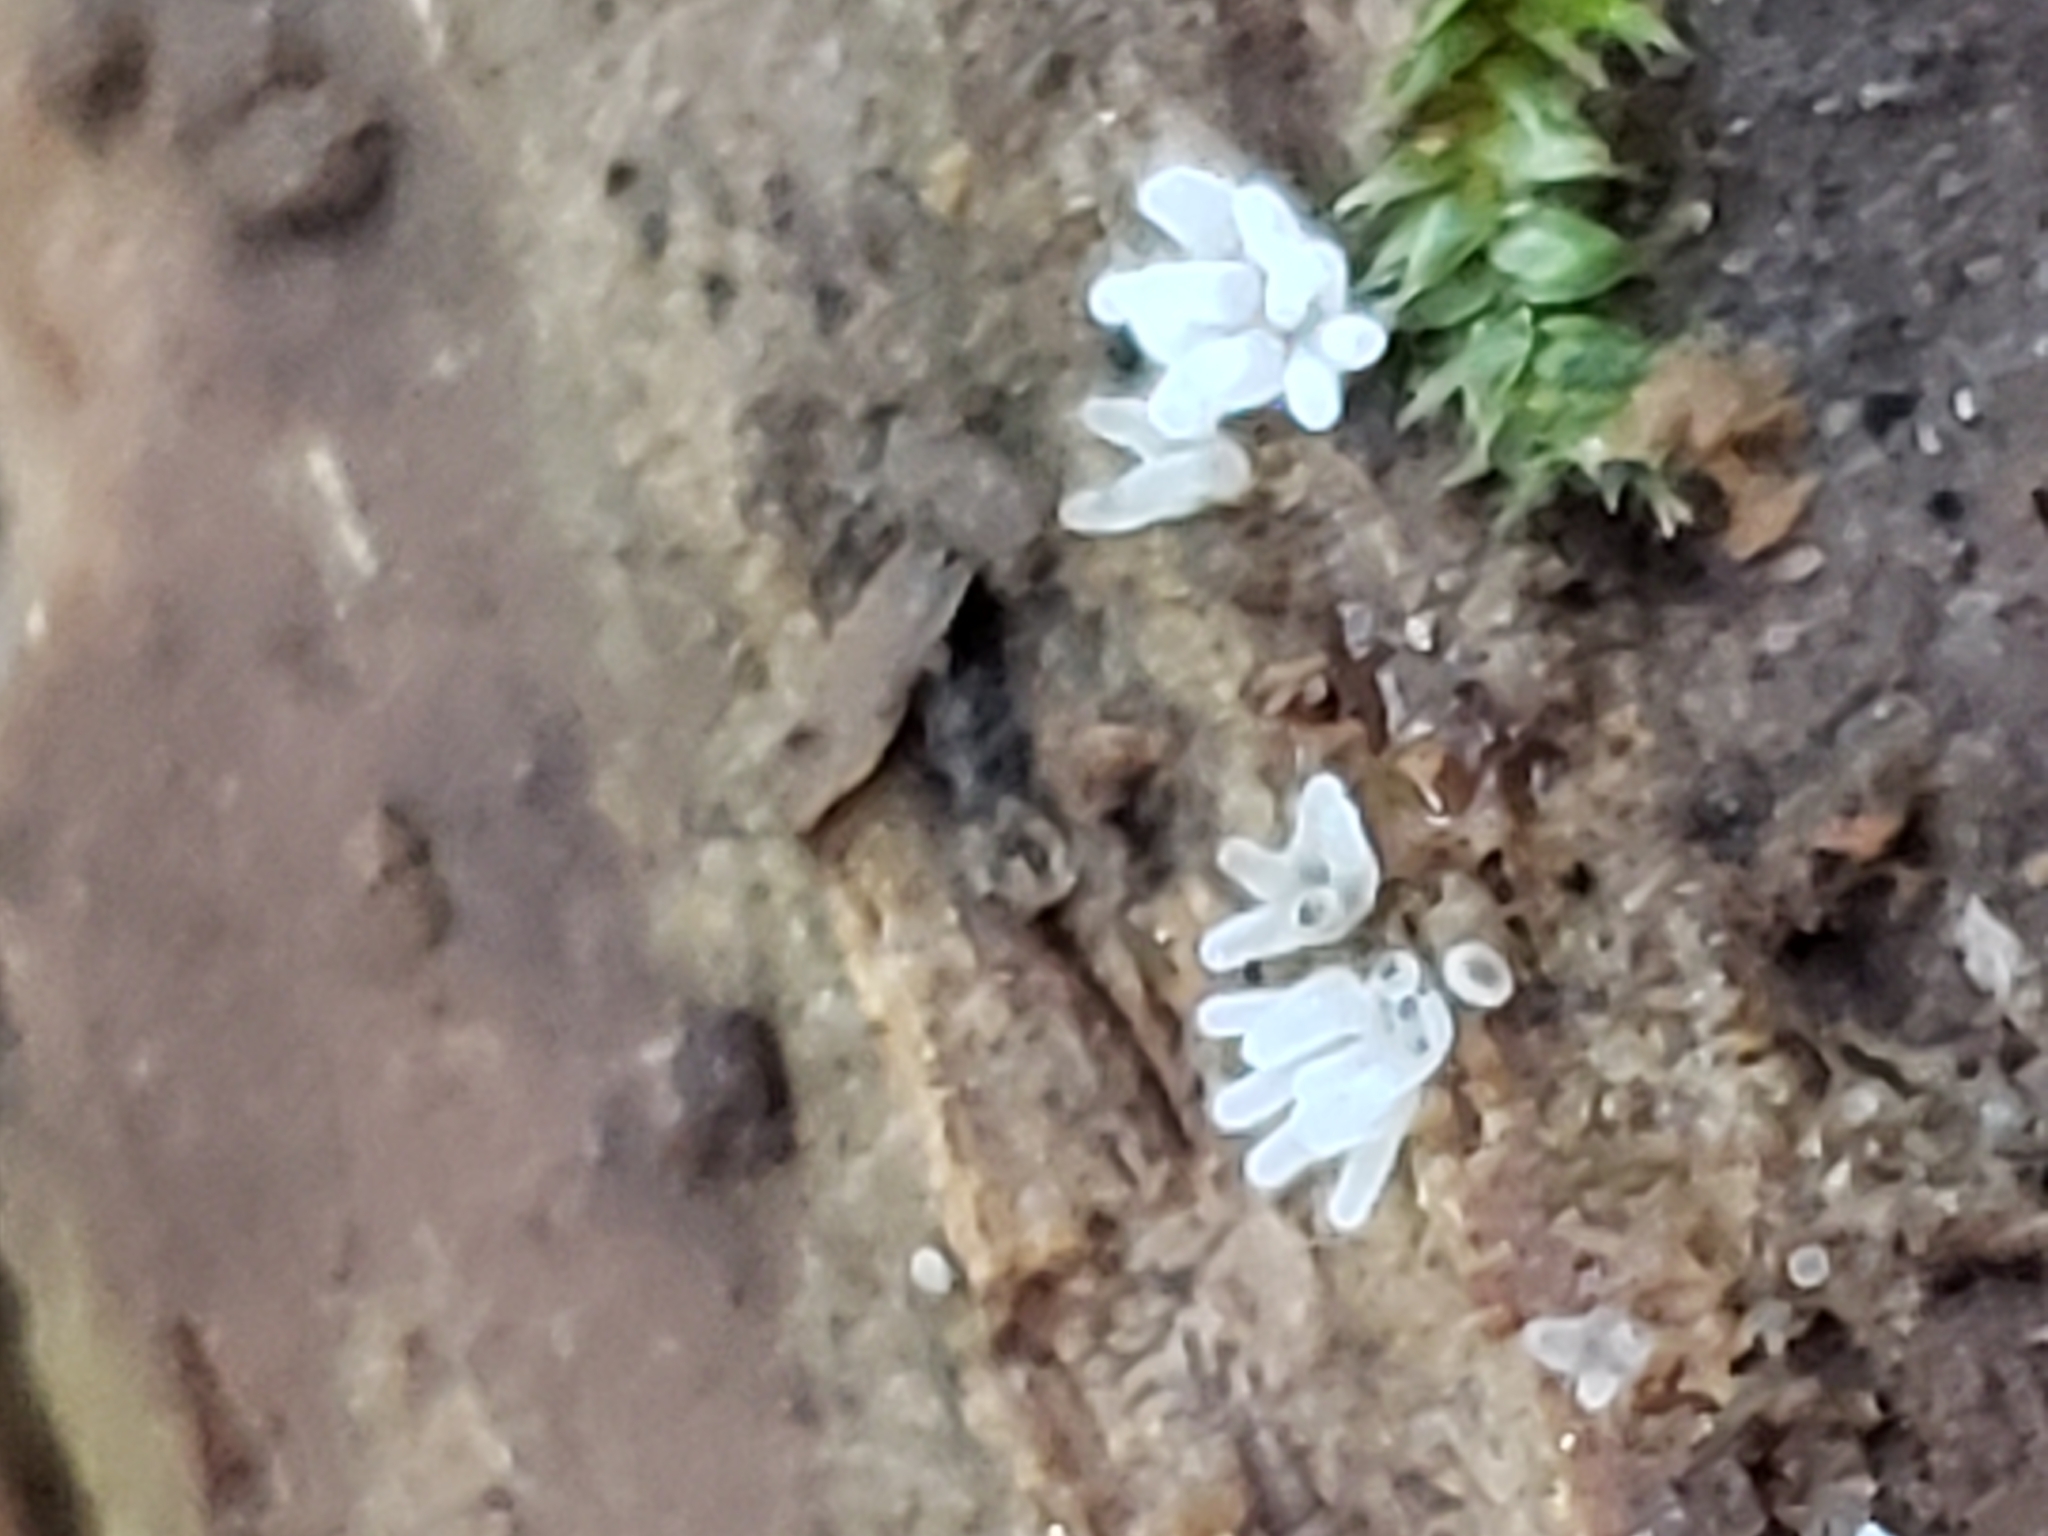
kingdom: Protozoa
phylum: Mycetozoa
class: Protosteliomycetes
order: Ceratiomyxales
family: Ceratiomyxaceae
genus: Ceratiomyxa
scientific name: Ceratiomyxa fruticulosa
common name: Honeycomb coral slime mold
